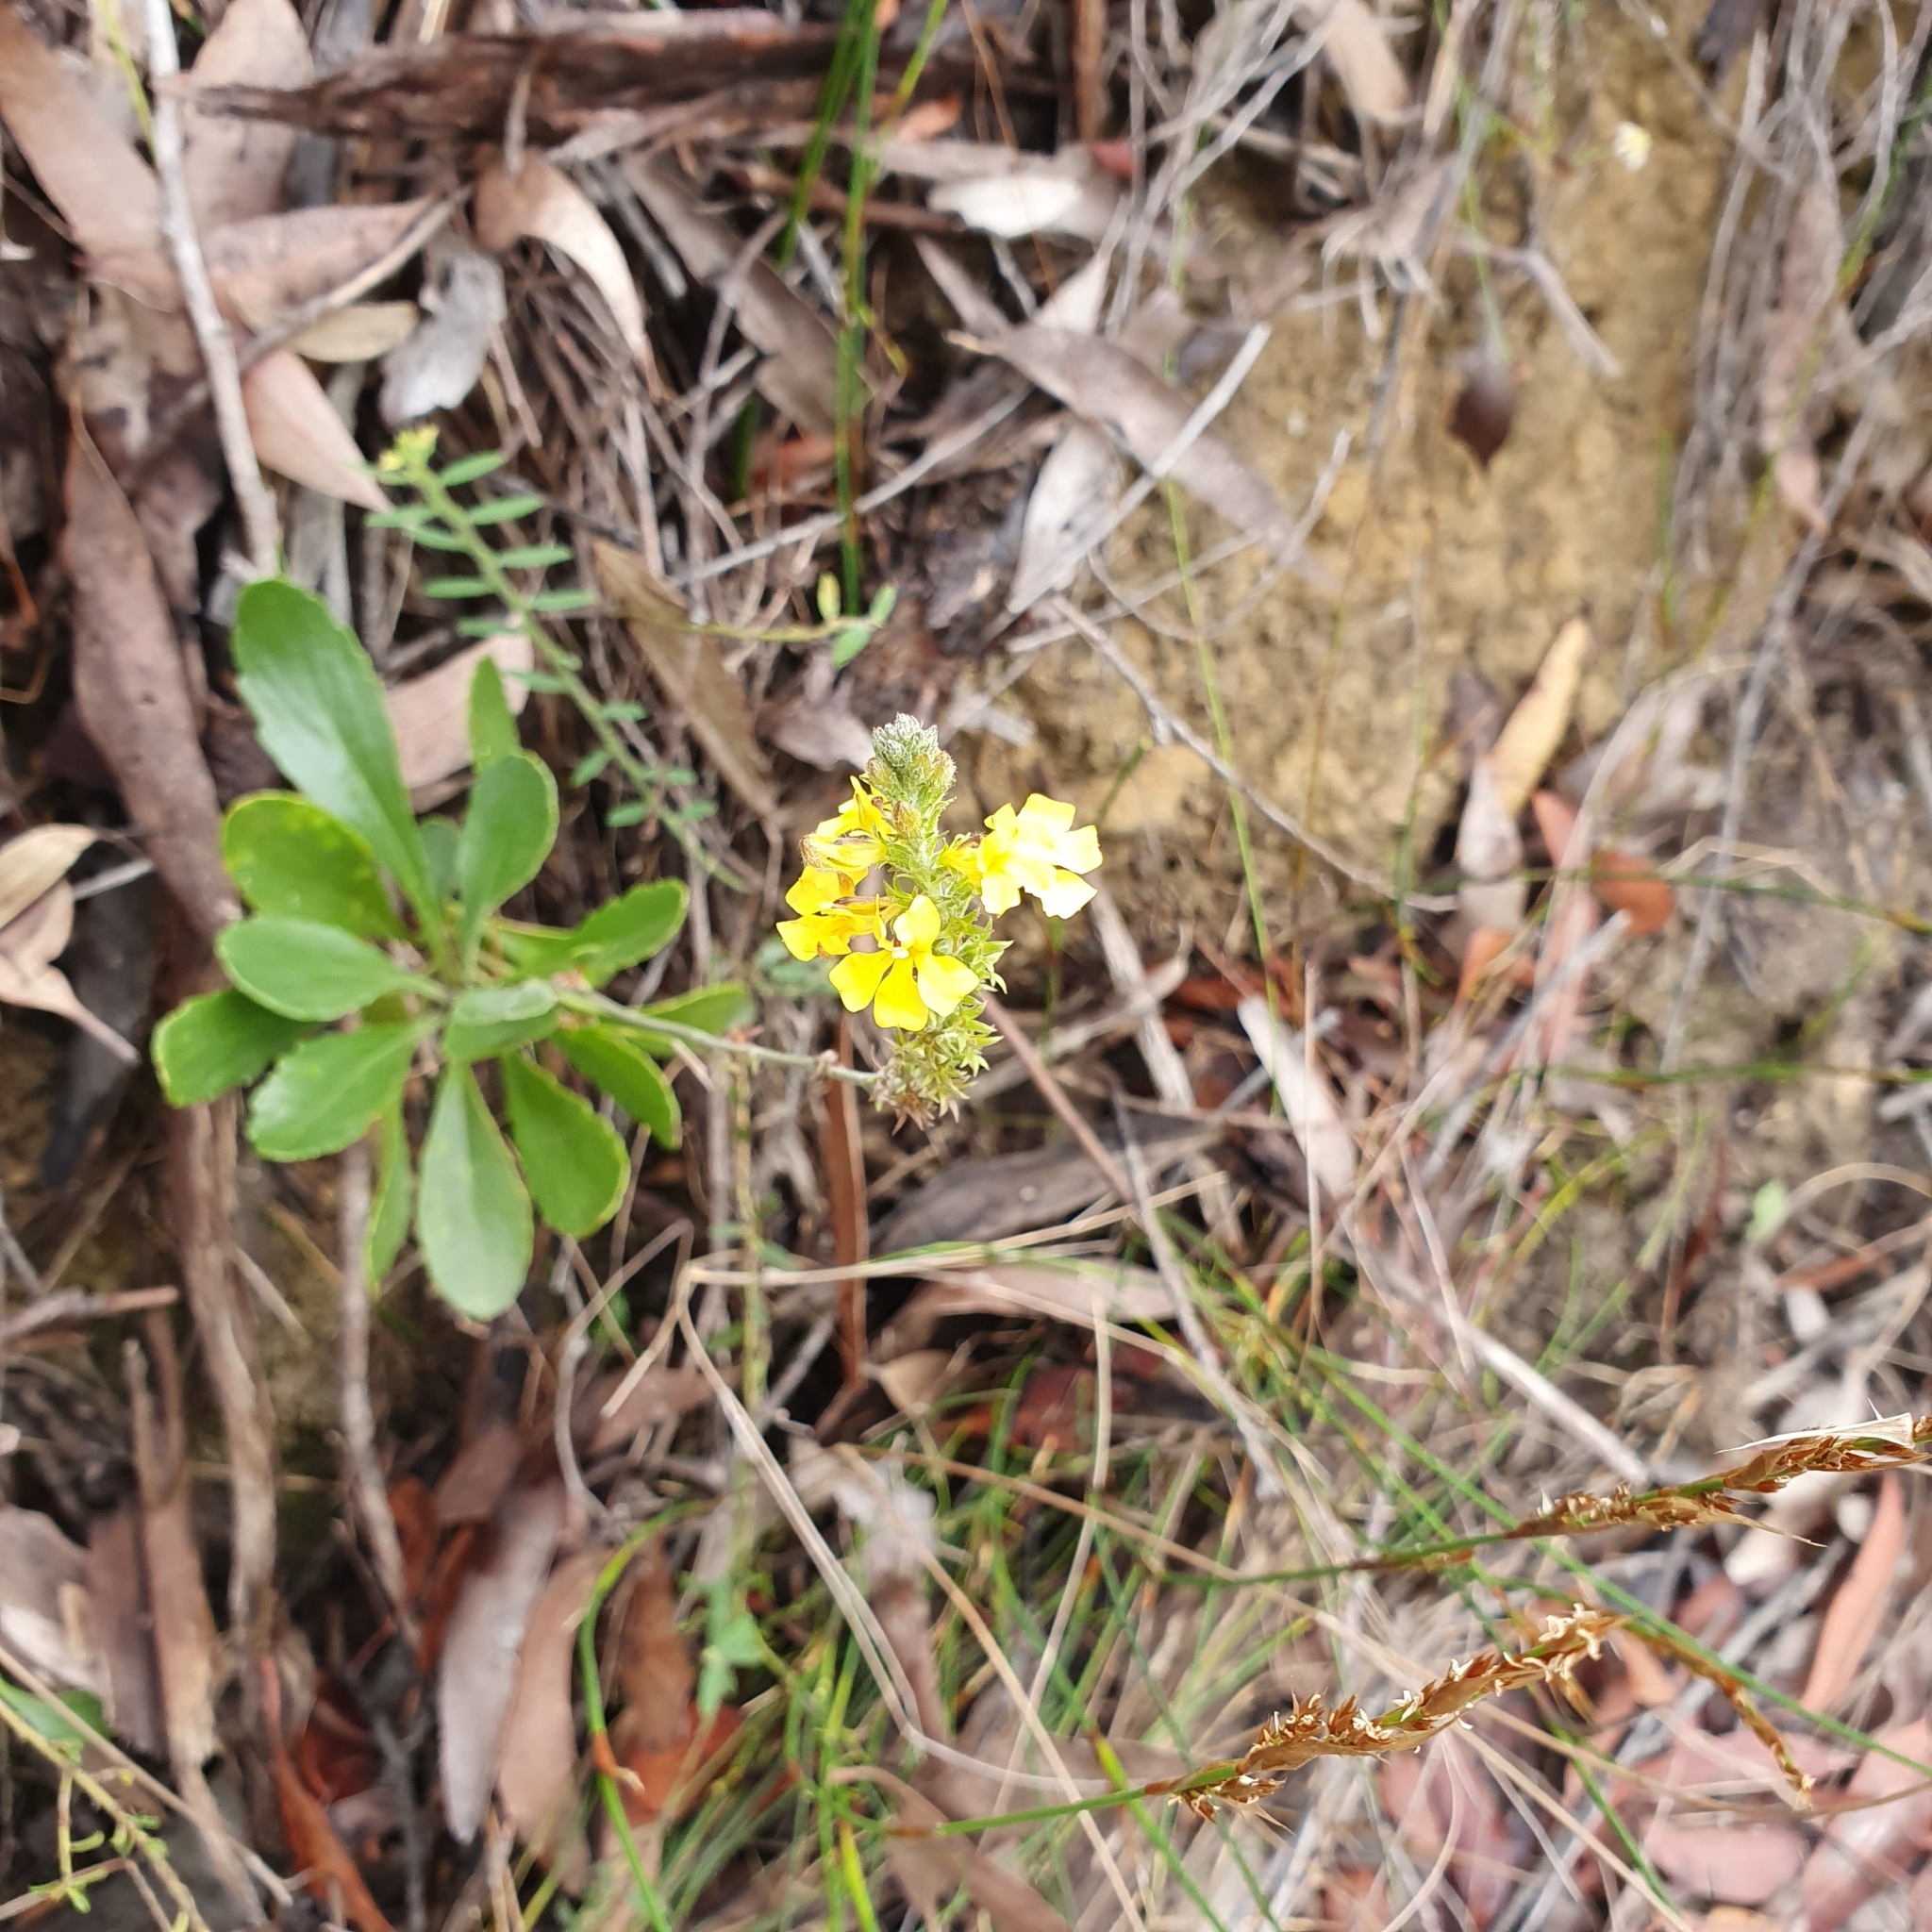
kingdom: Plantae
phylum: Tracheophyta
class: Magnoliopsida
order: Asterales
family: Goodeniaceae
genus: Goodenia
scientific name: Goodenia bellidifolia
